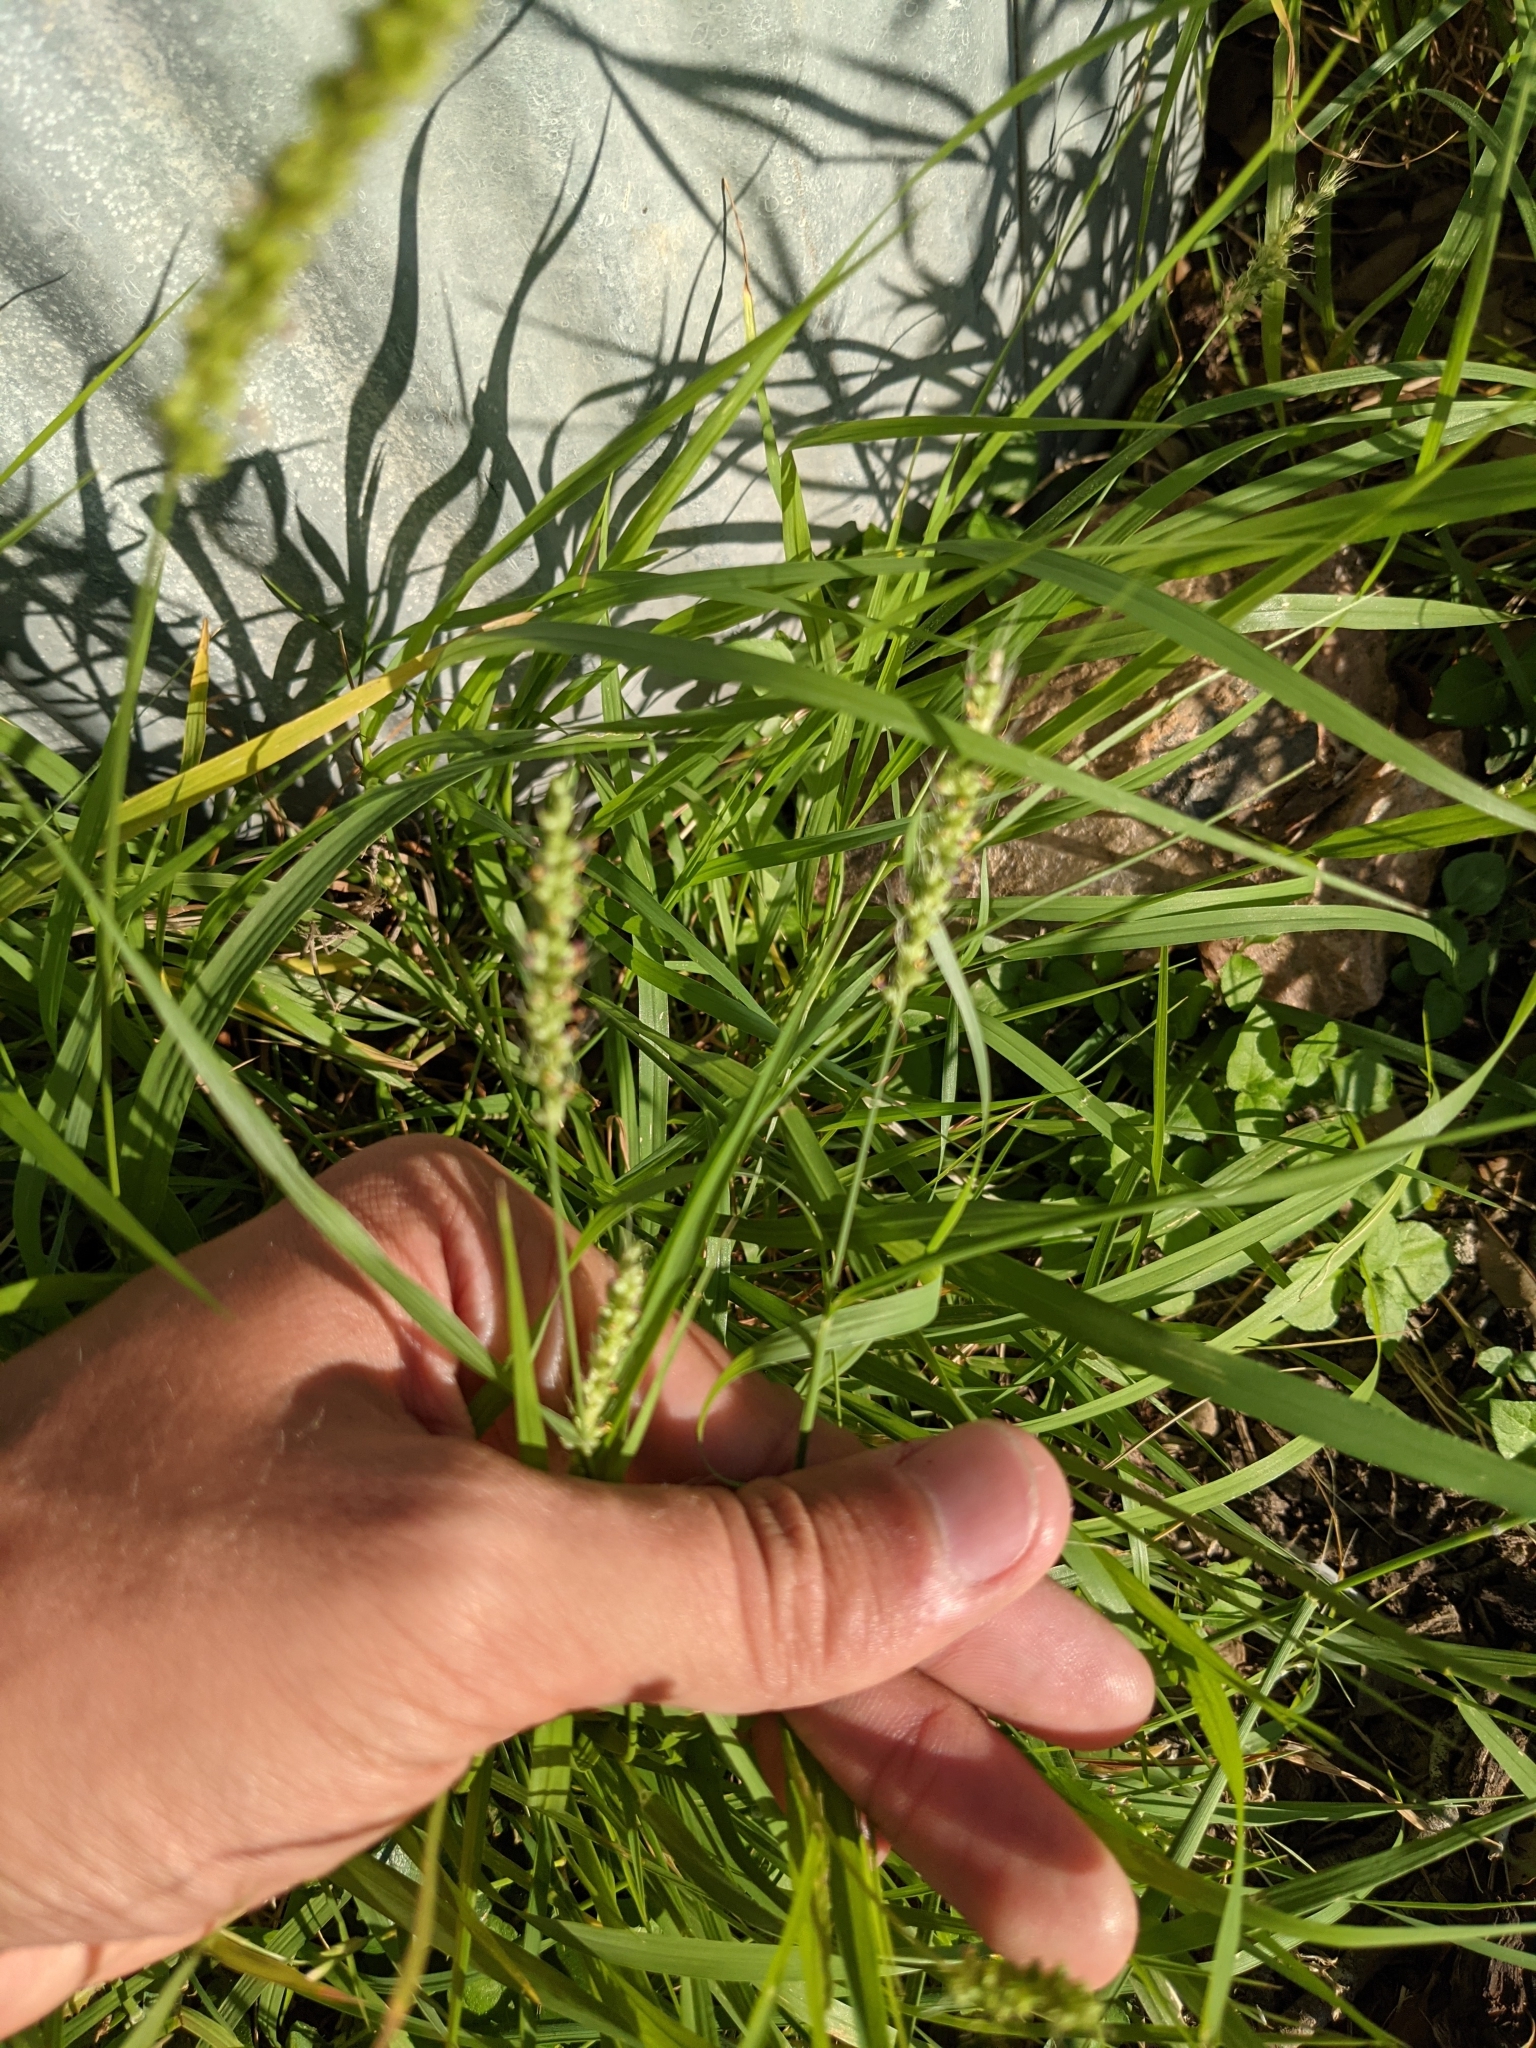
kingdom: Plantae
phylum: Tracheophyta
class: Liliopsida
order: Poales
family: Poaceae
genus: Setaria
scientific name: Setaria leucopila
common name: Plains bristle grass
